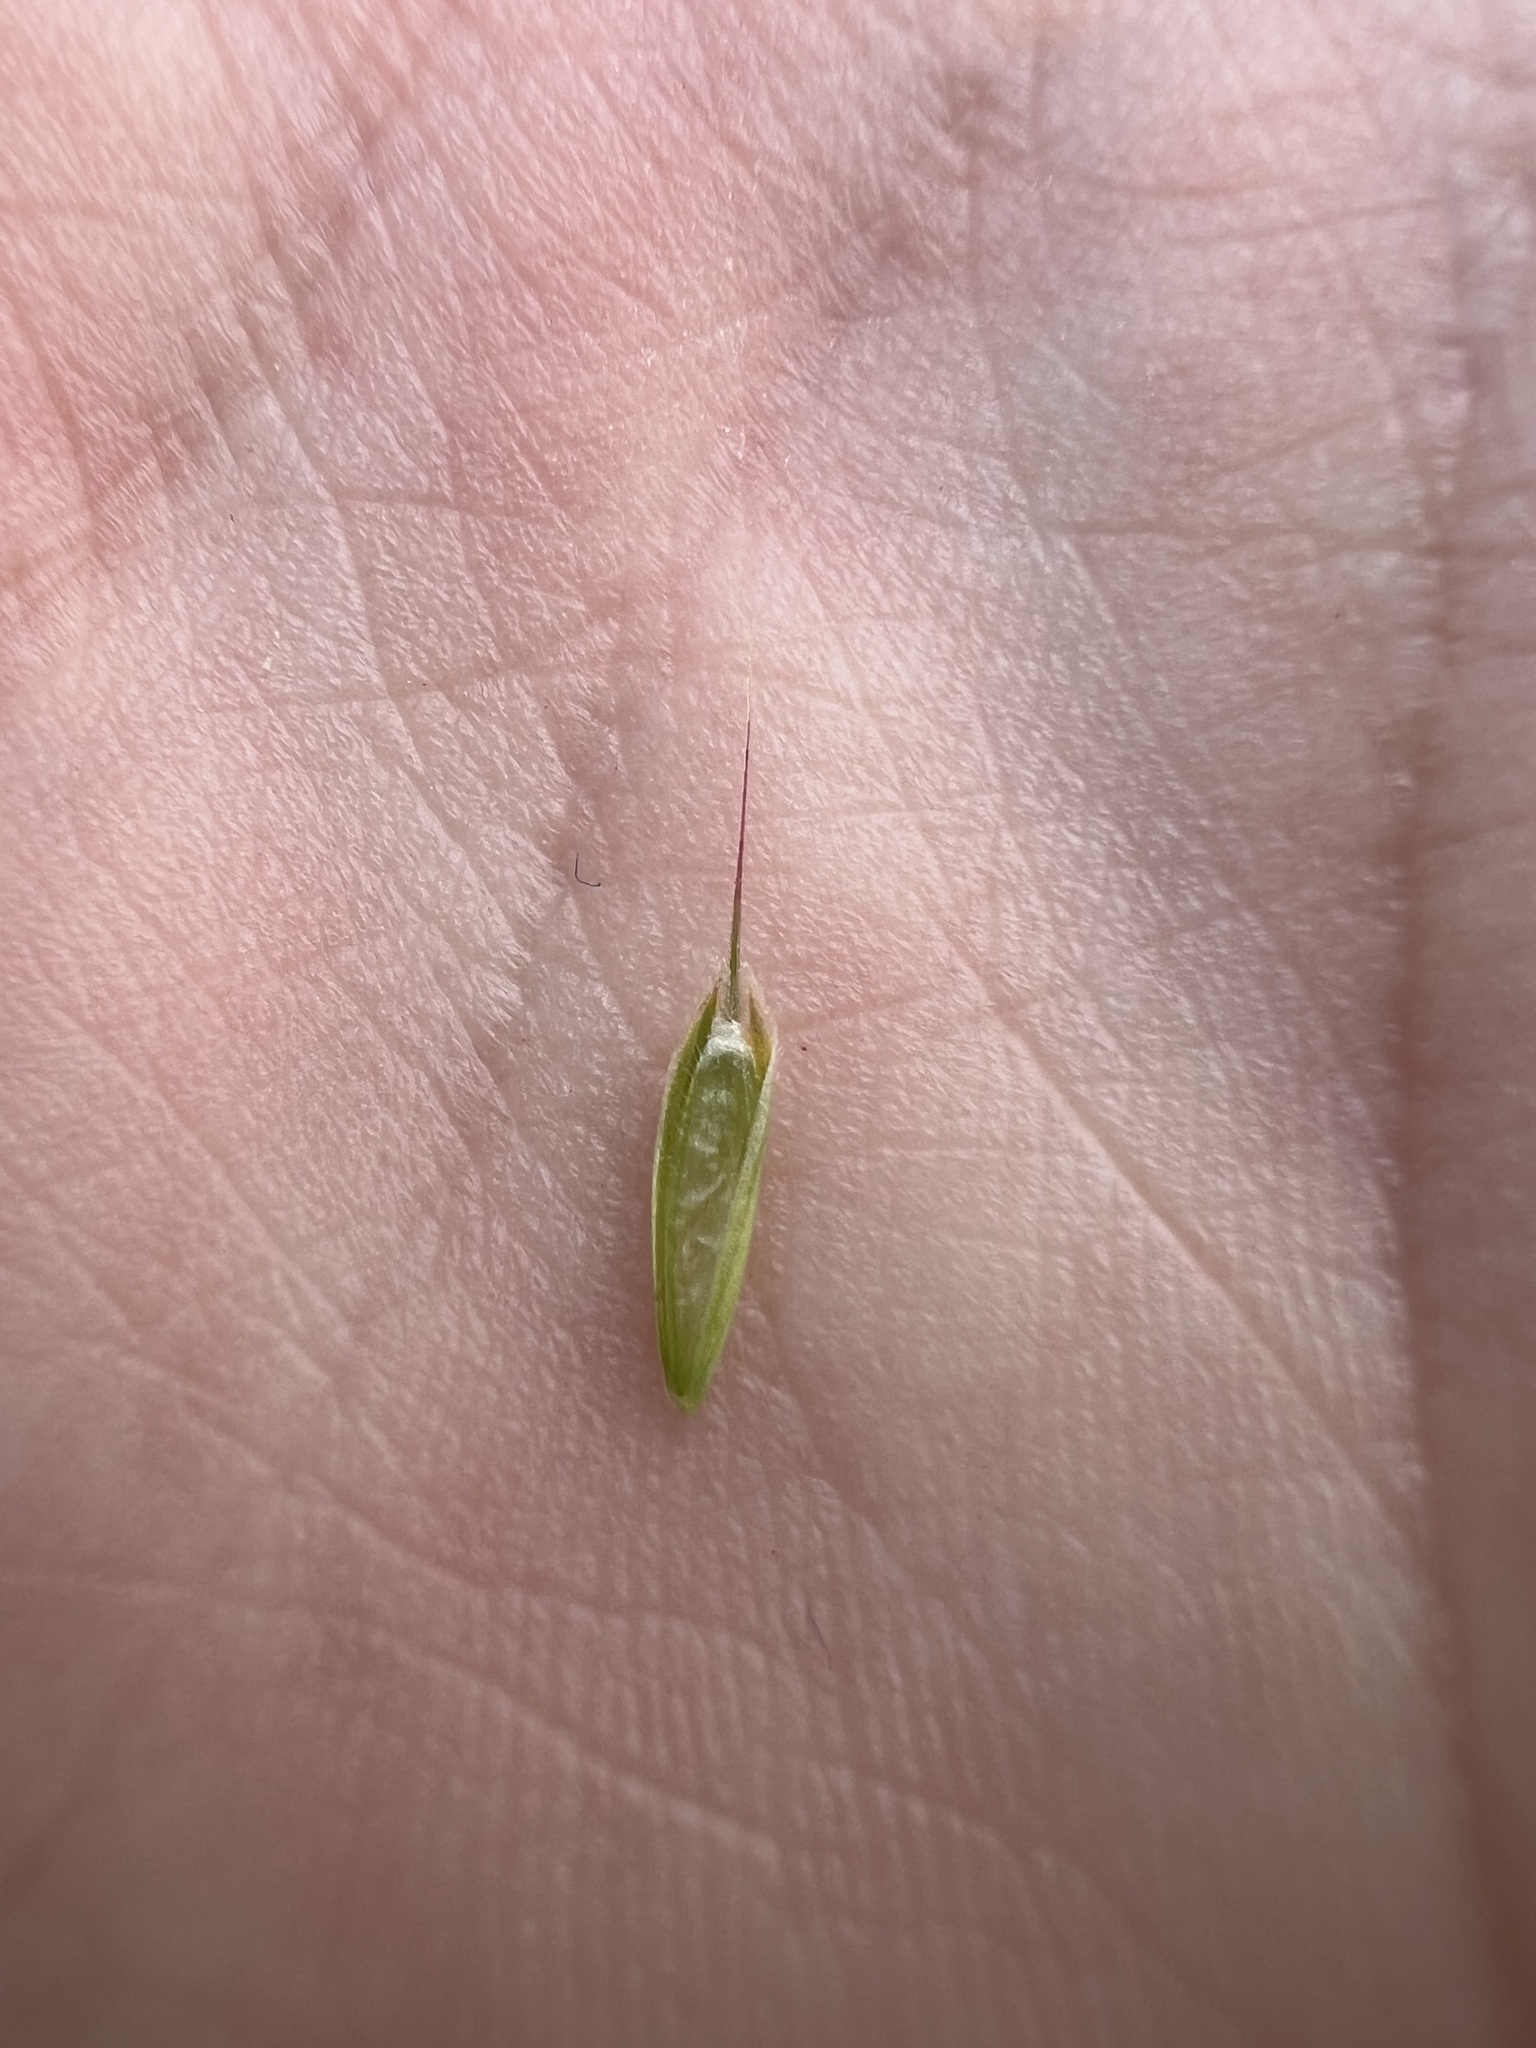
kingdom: Plantae
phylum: Tracheophyta
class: Liliopsida
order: Poales
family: Poaceae
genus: Bromus
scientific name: Bromus hordeaceus
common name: Soft brome
